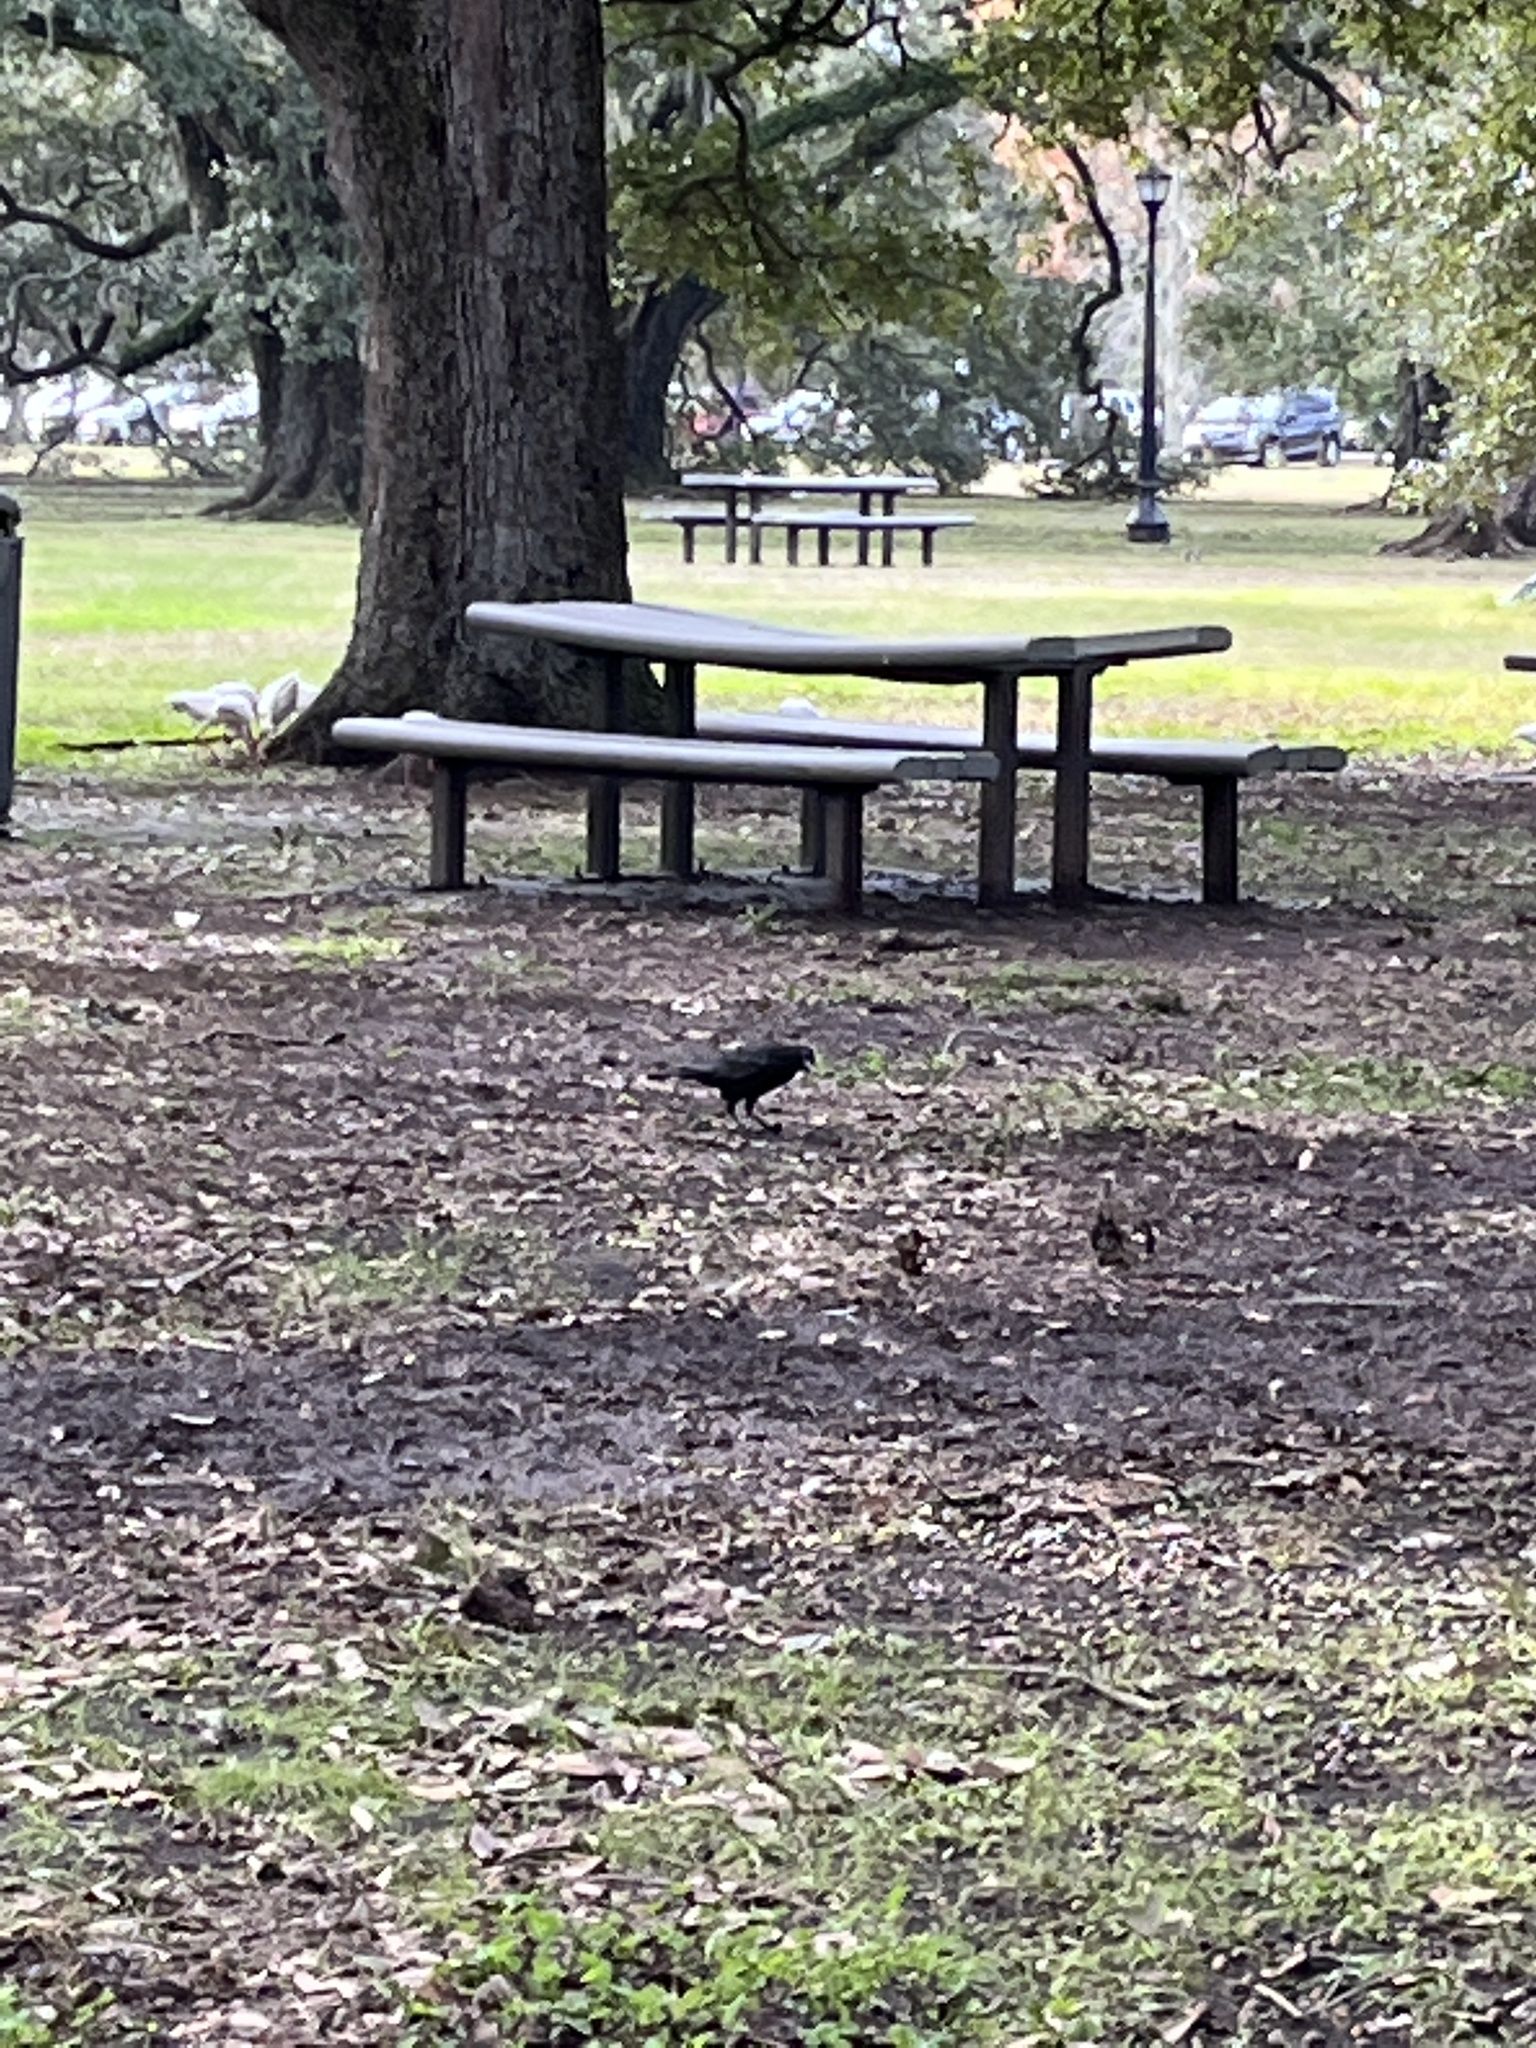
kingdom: Animalia
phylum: Chordata
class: Aves
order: Passeriformes
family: Corvidae
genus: Corvus
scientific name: Corvus brachyrhynchos
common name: American crow
